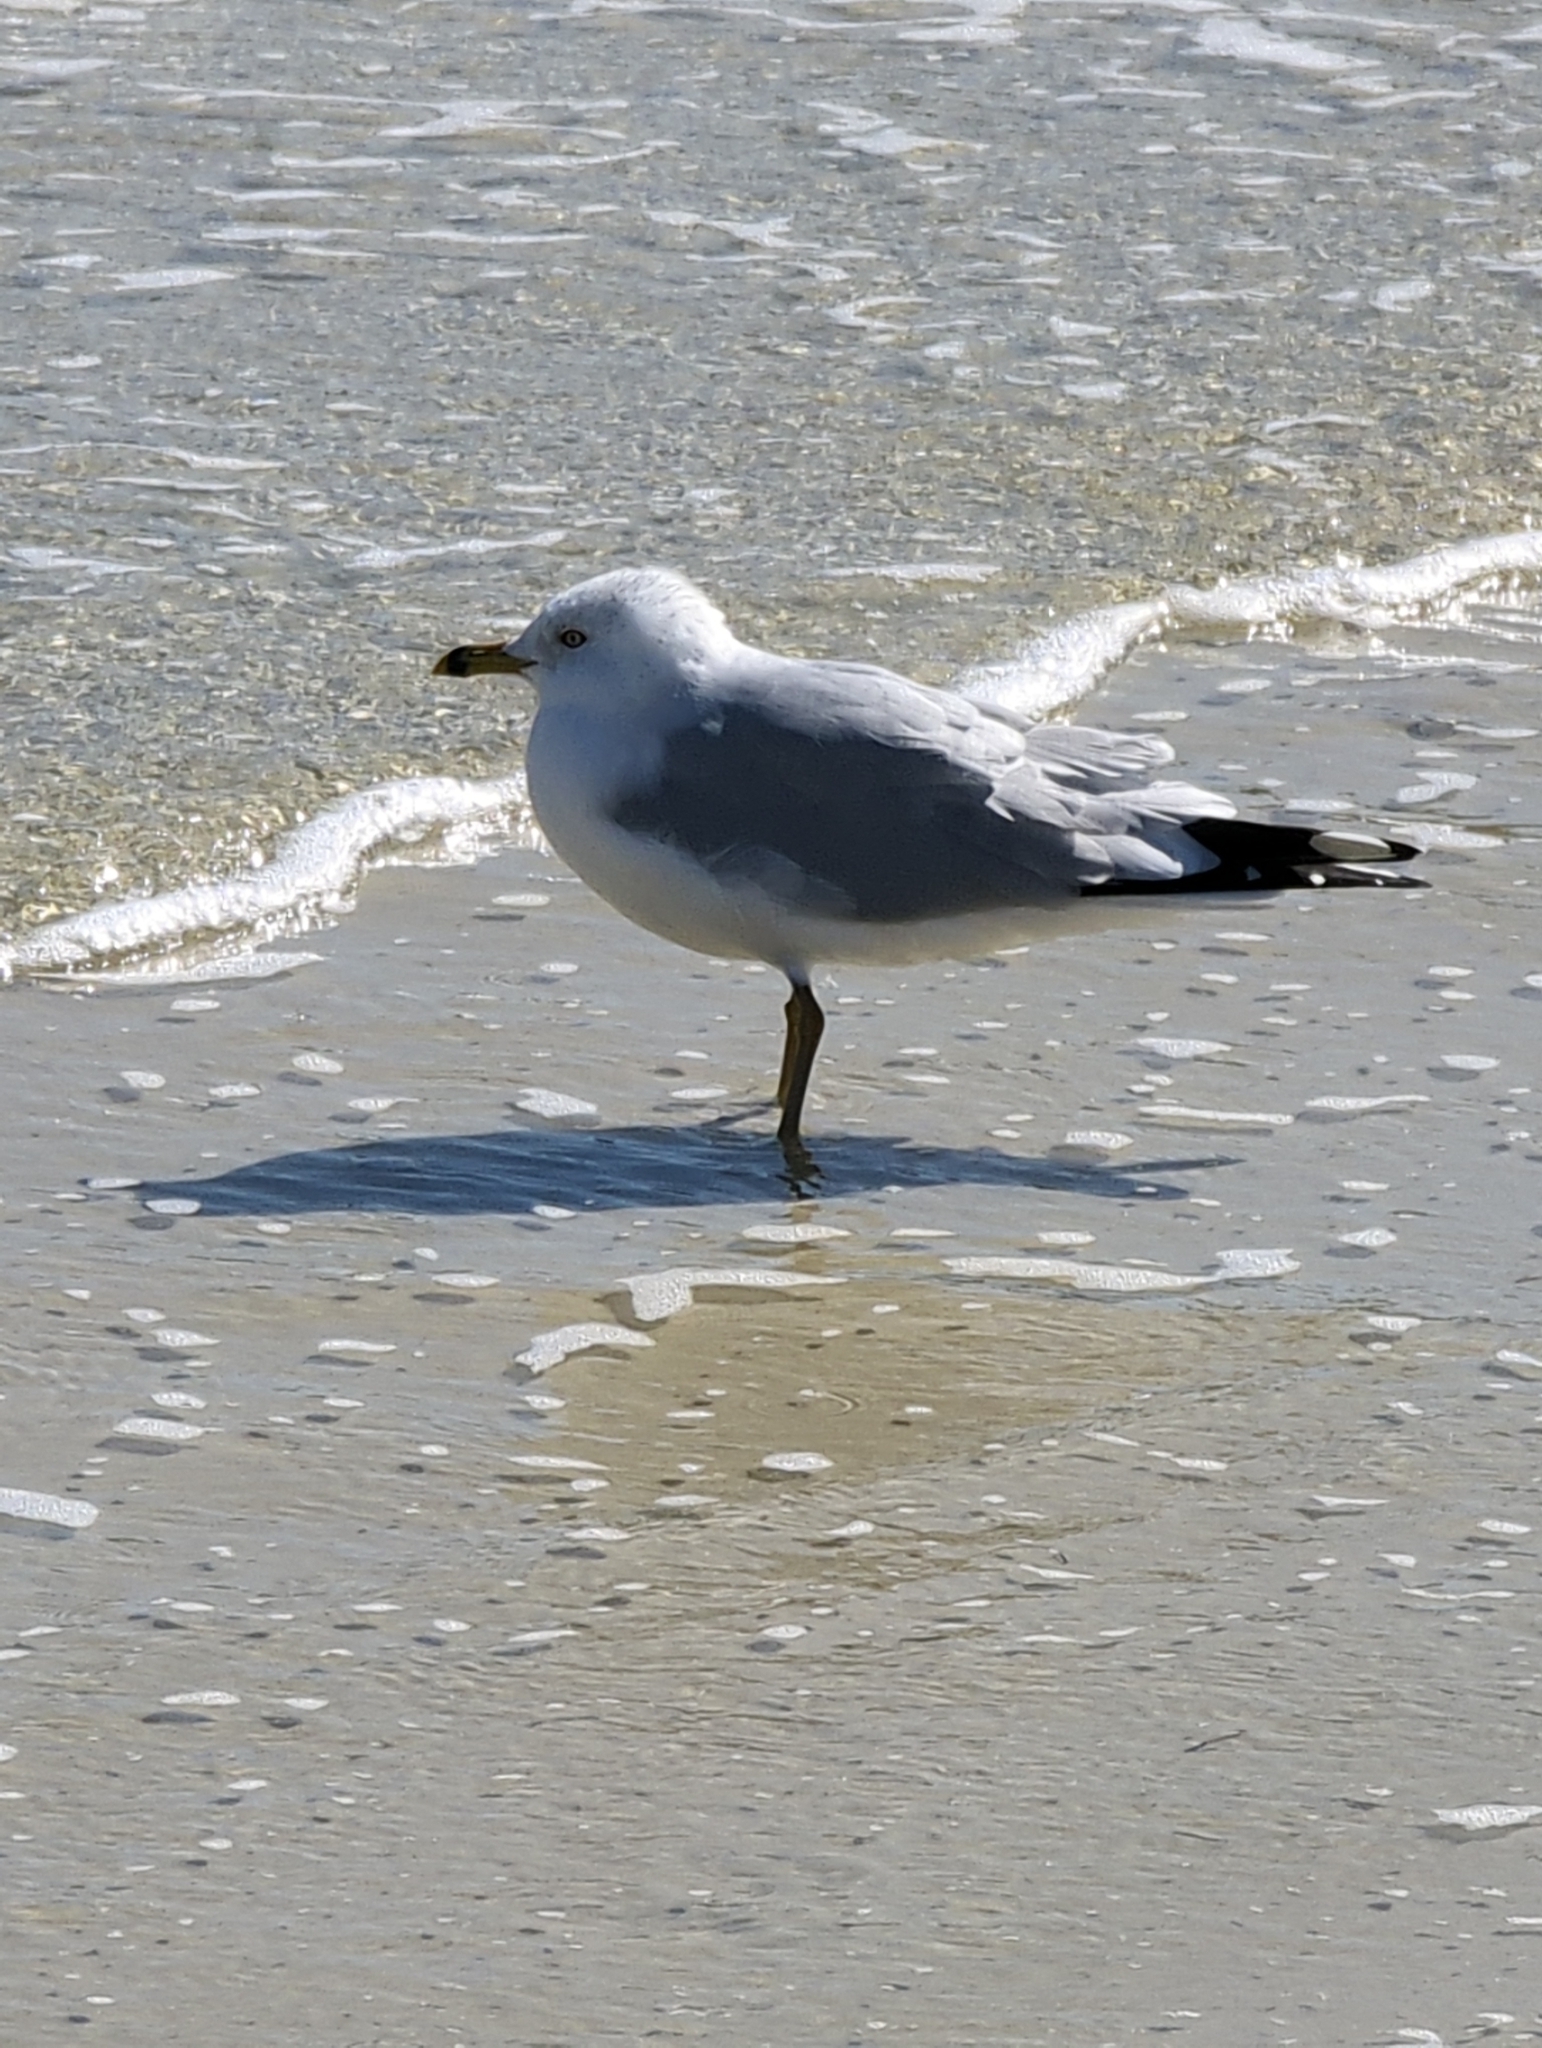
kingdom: Animalia
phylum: Chordata
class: Aves
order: Charadriiformes
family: Laridae
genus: Larus
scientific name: Larus delawarensis
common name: Ring-billed gull
